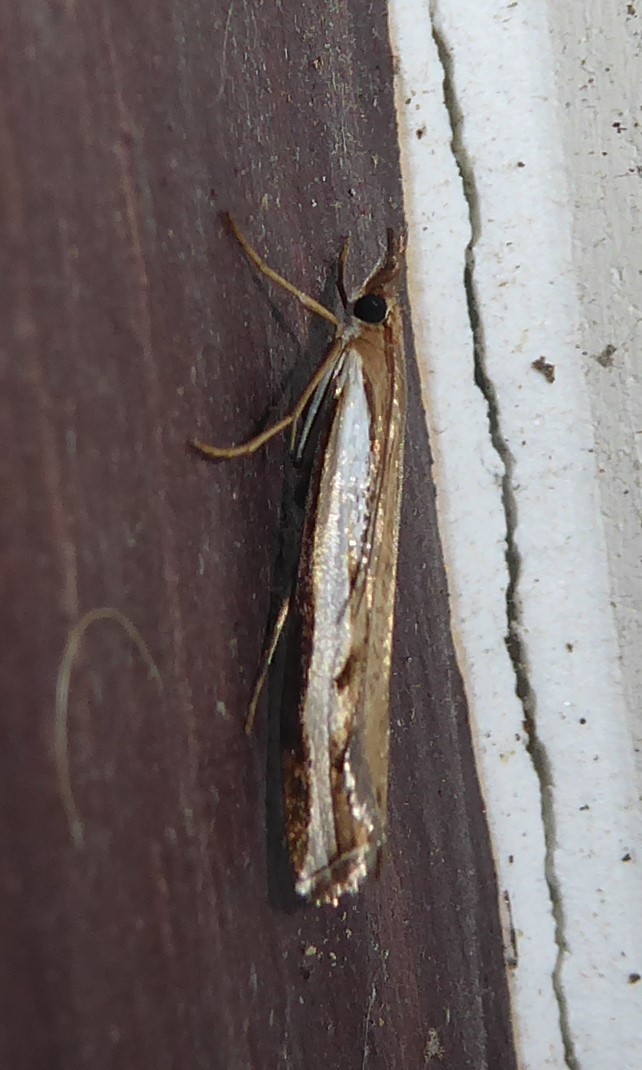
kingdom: Animalia
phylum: Arthropoda
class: Insecta
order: Lepidoptera
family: Crambidae
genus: Orocrambus
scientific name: Orocrambus flexuosellus
